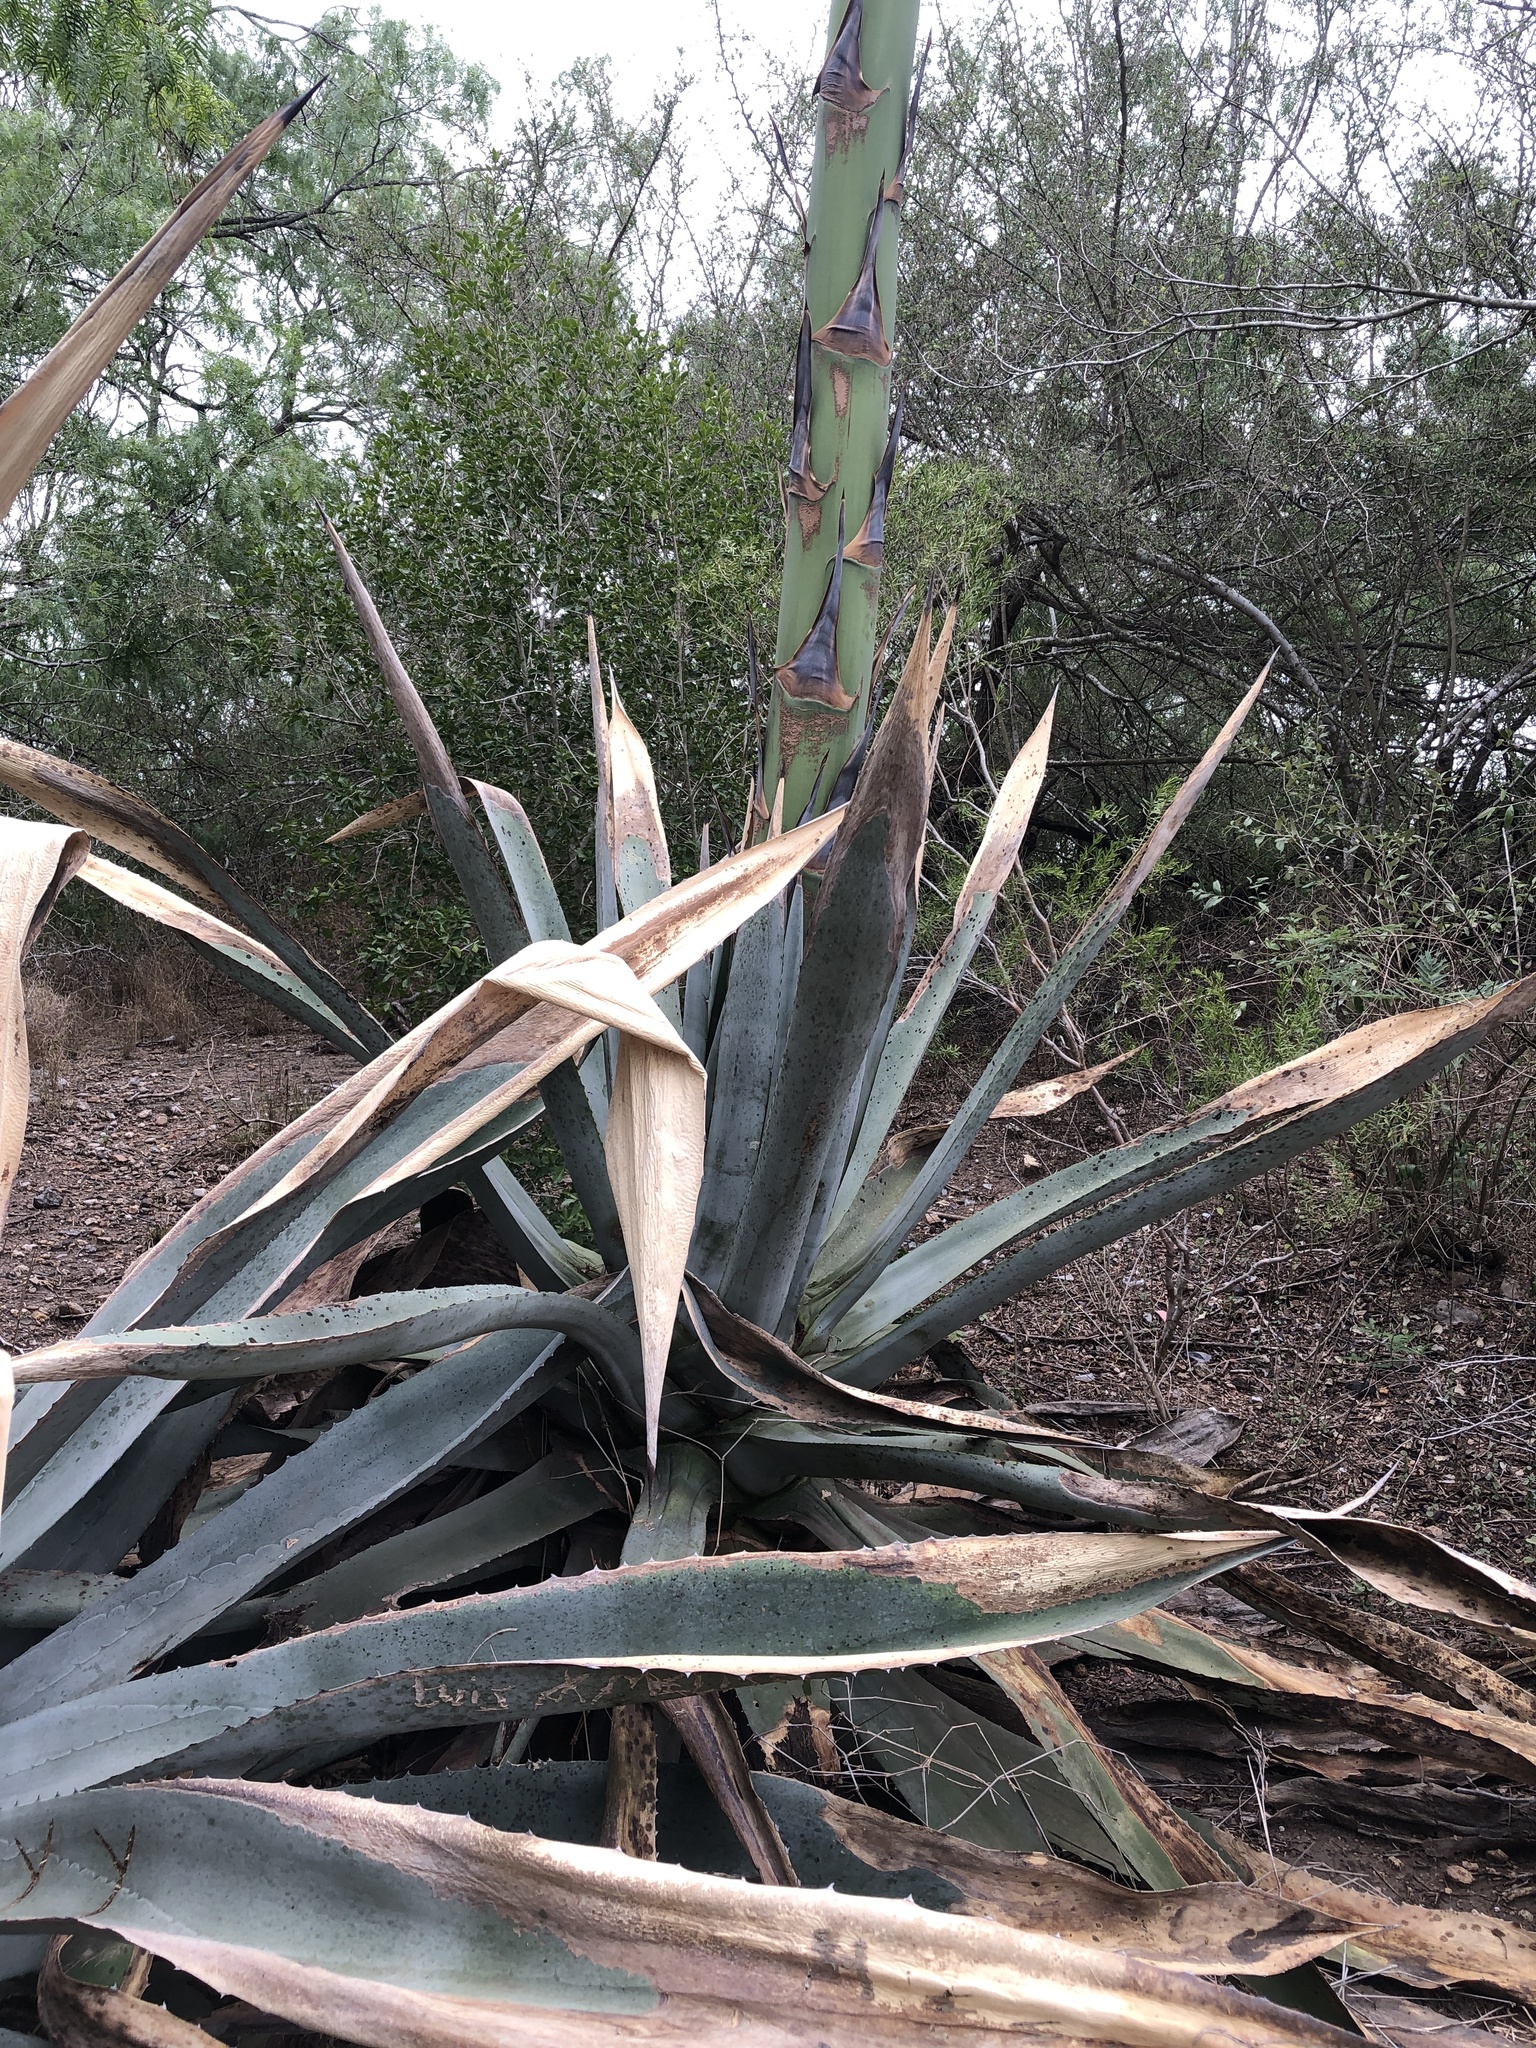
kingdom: Plantae
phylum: Tracheophyta
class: Liliopsida
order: Asparagales
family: Asparagaceae
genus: Agave
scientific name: Agave americana
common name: Centuryplant
